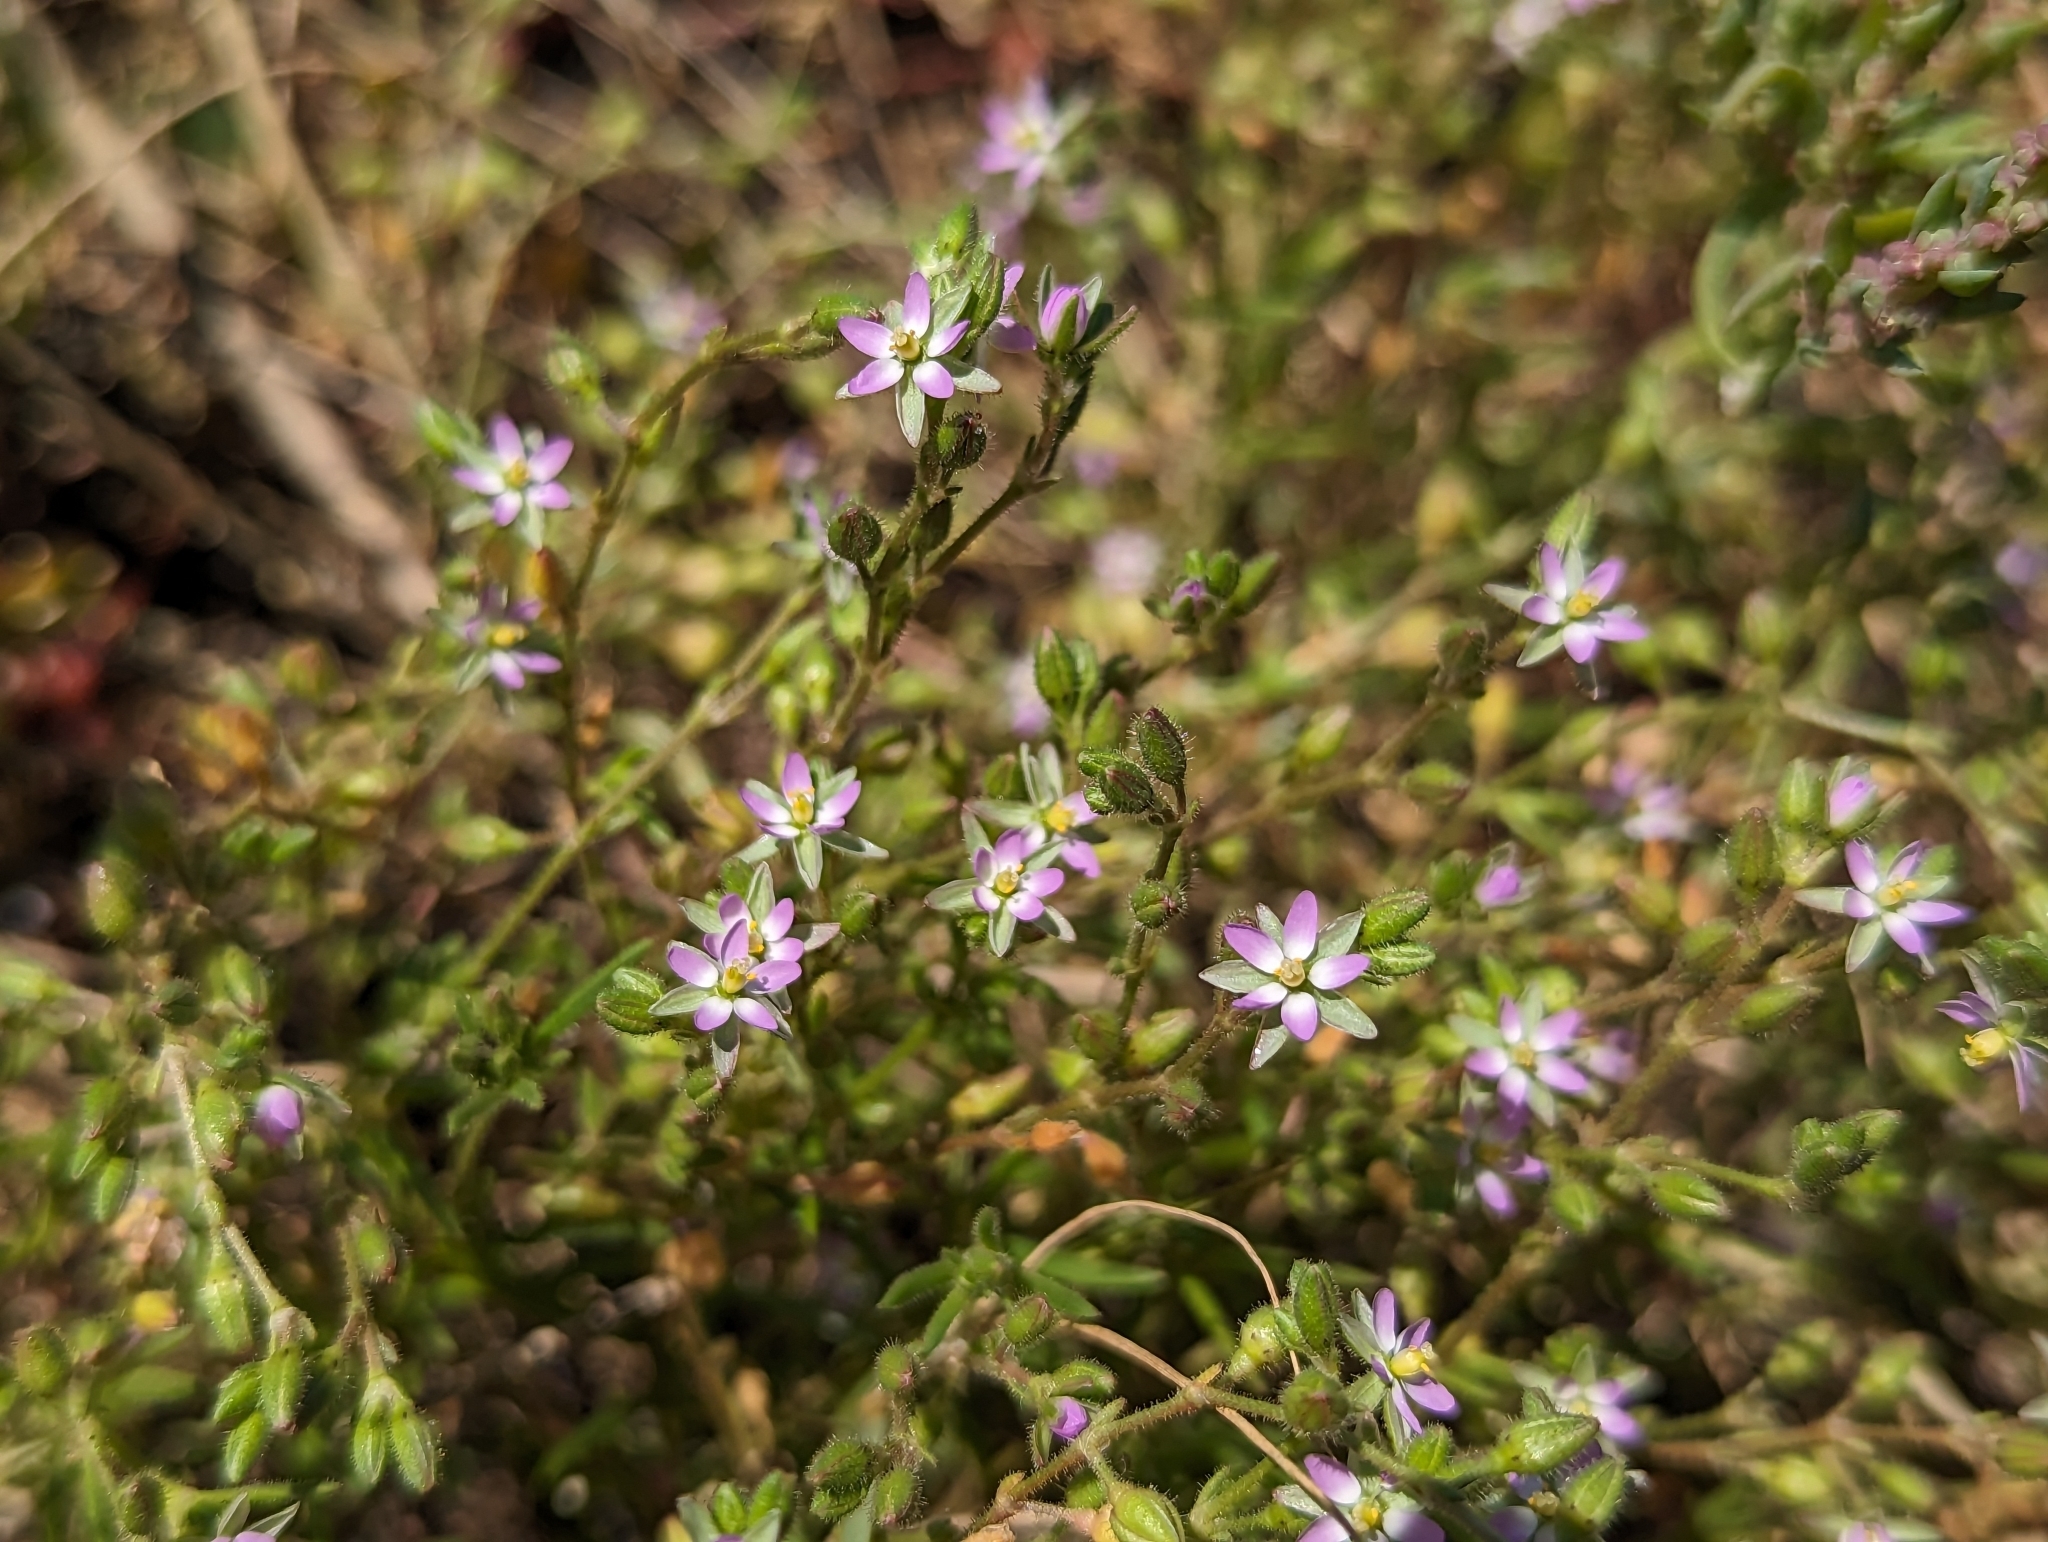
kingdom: Plantae
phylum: Tracheophyta
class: Magnoliopsida
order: Caryophyllales
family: Caryophyllaceae
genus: Spergularia
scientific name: Spergularia marina
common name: Lesser sea-spurrey
